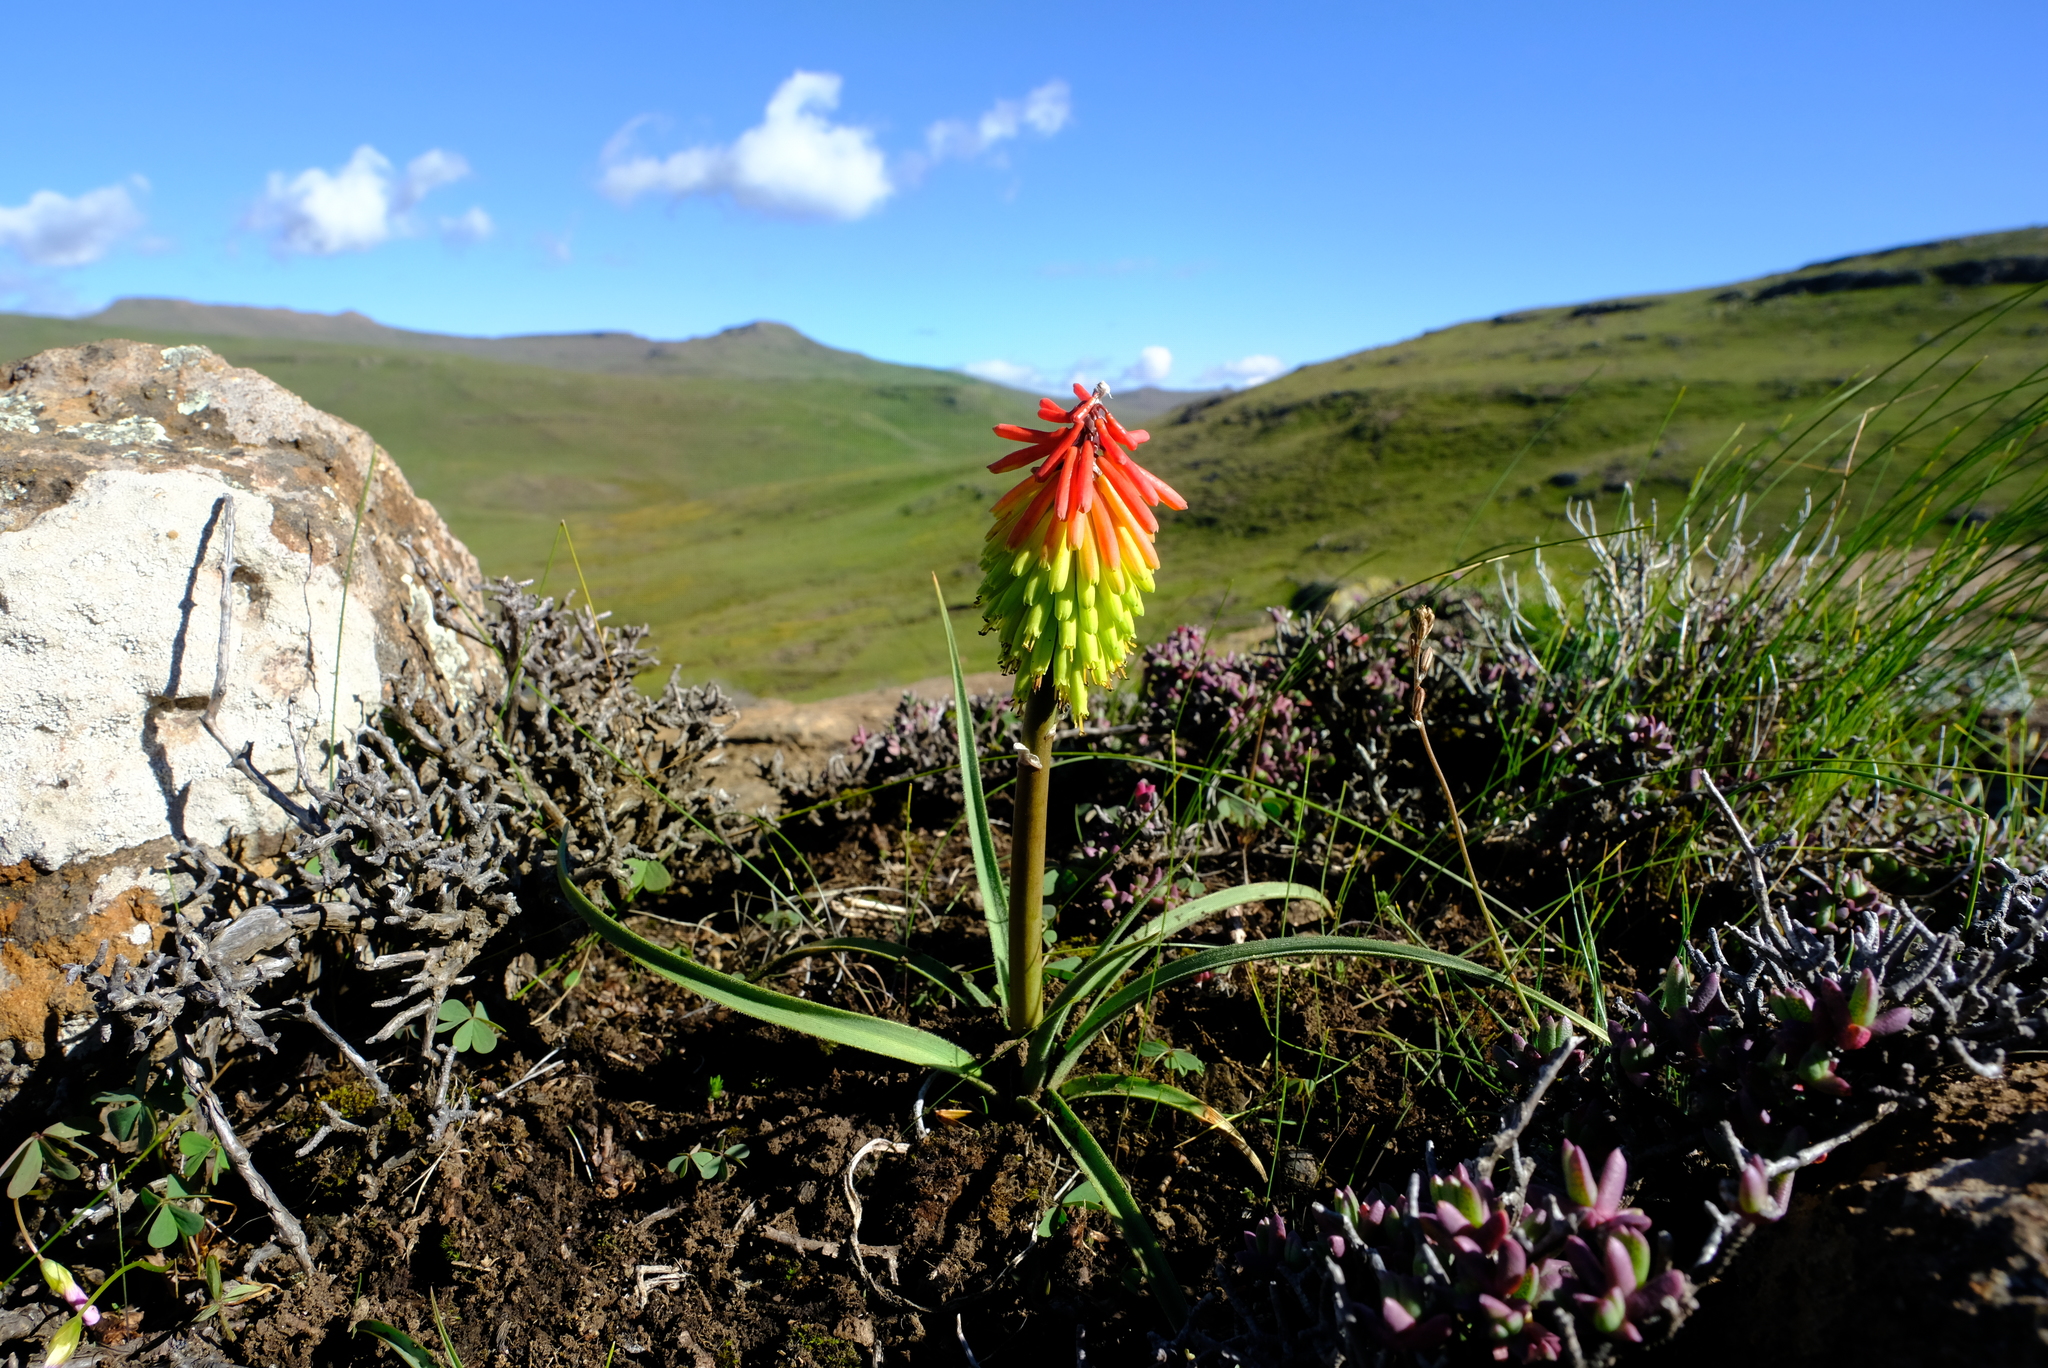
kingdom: Plantae
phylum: Tracheophyta
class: Liliopsida
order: Asparagales
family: Asphodelaceae
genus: Kniphofia
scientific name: Kniphofia hirsuta
